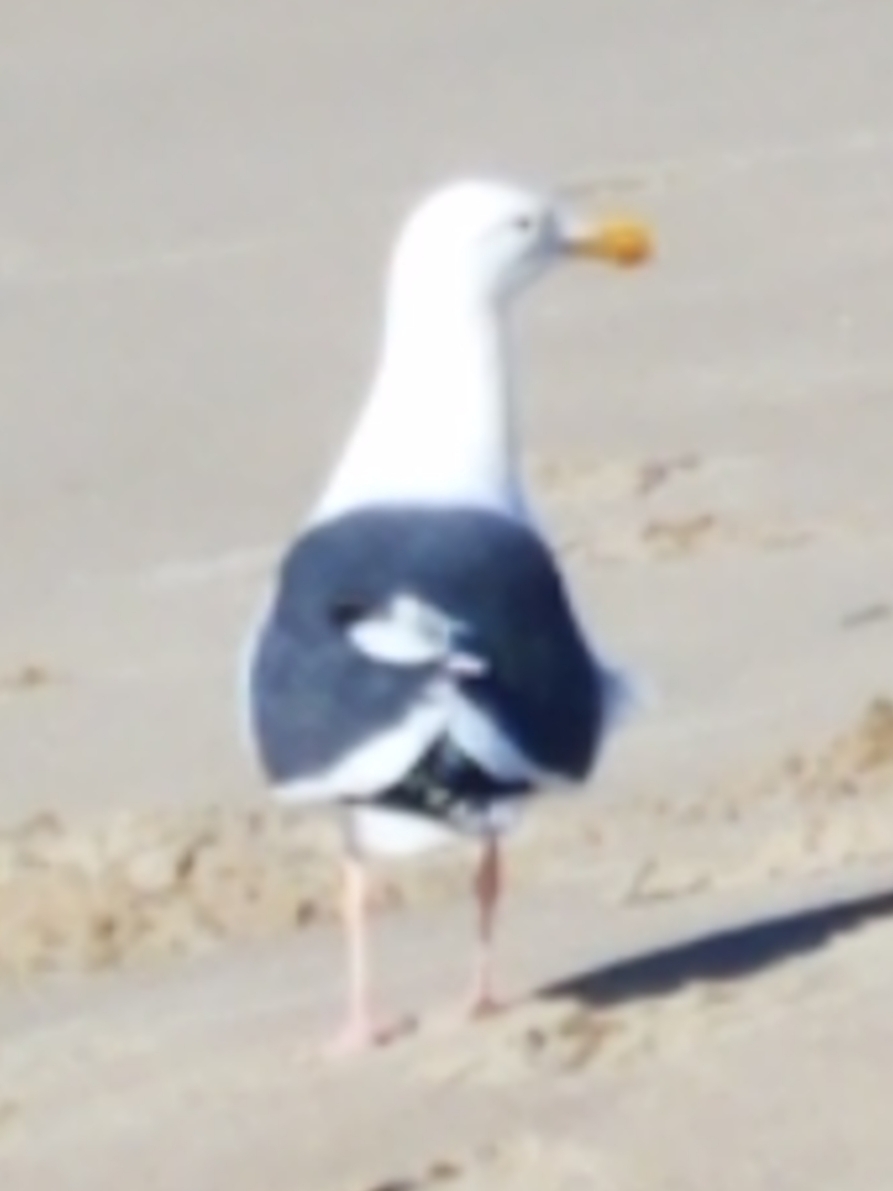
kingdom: Animalia
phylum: Chordata
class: Aves
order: Charadriiformes
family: Laridae
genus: Larus
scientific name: Larus occidentalis
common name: Western gull
